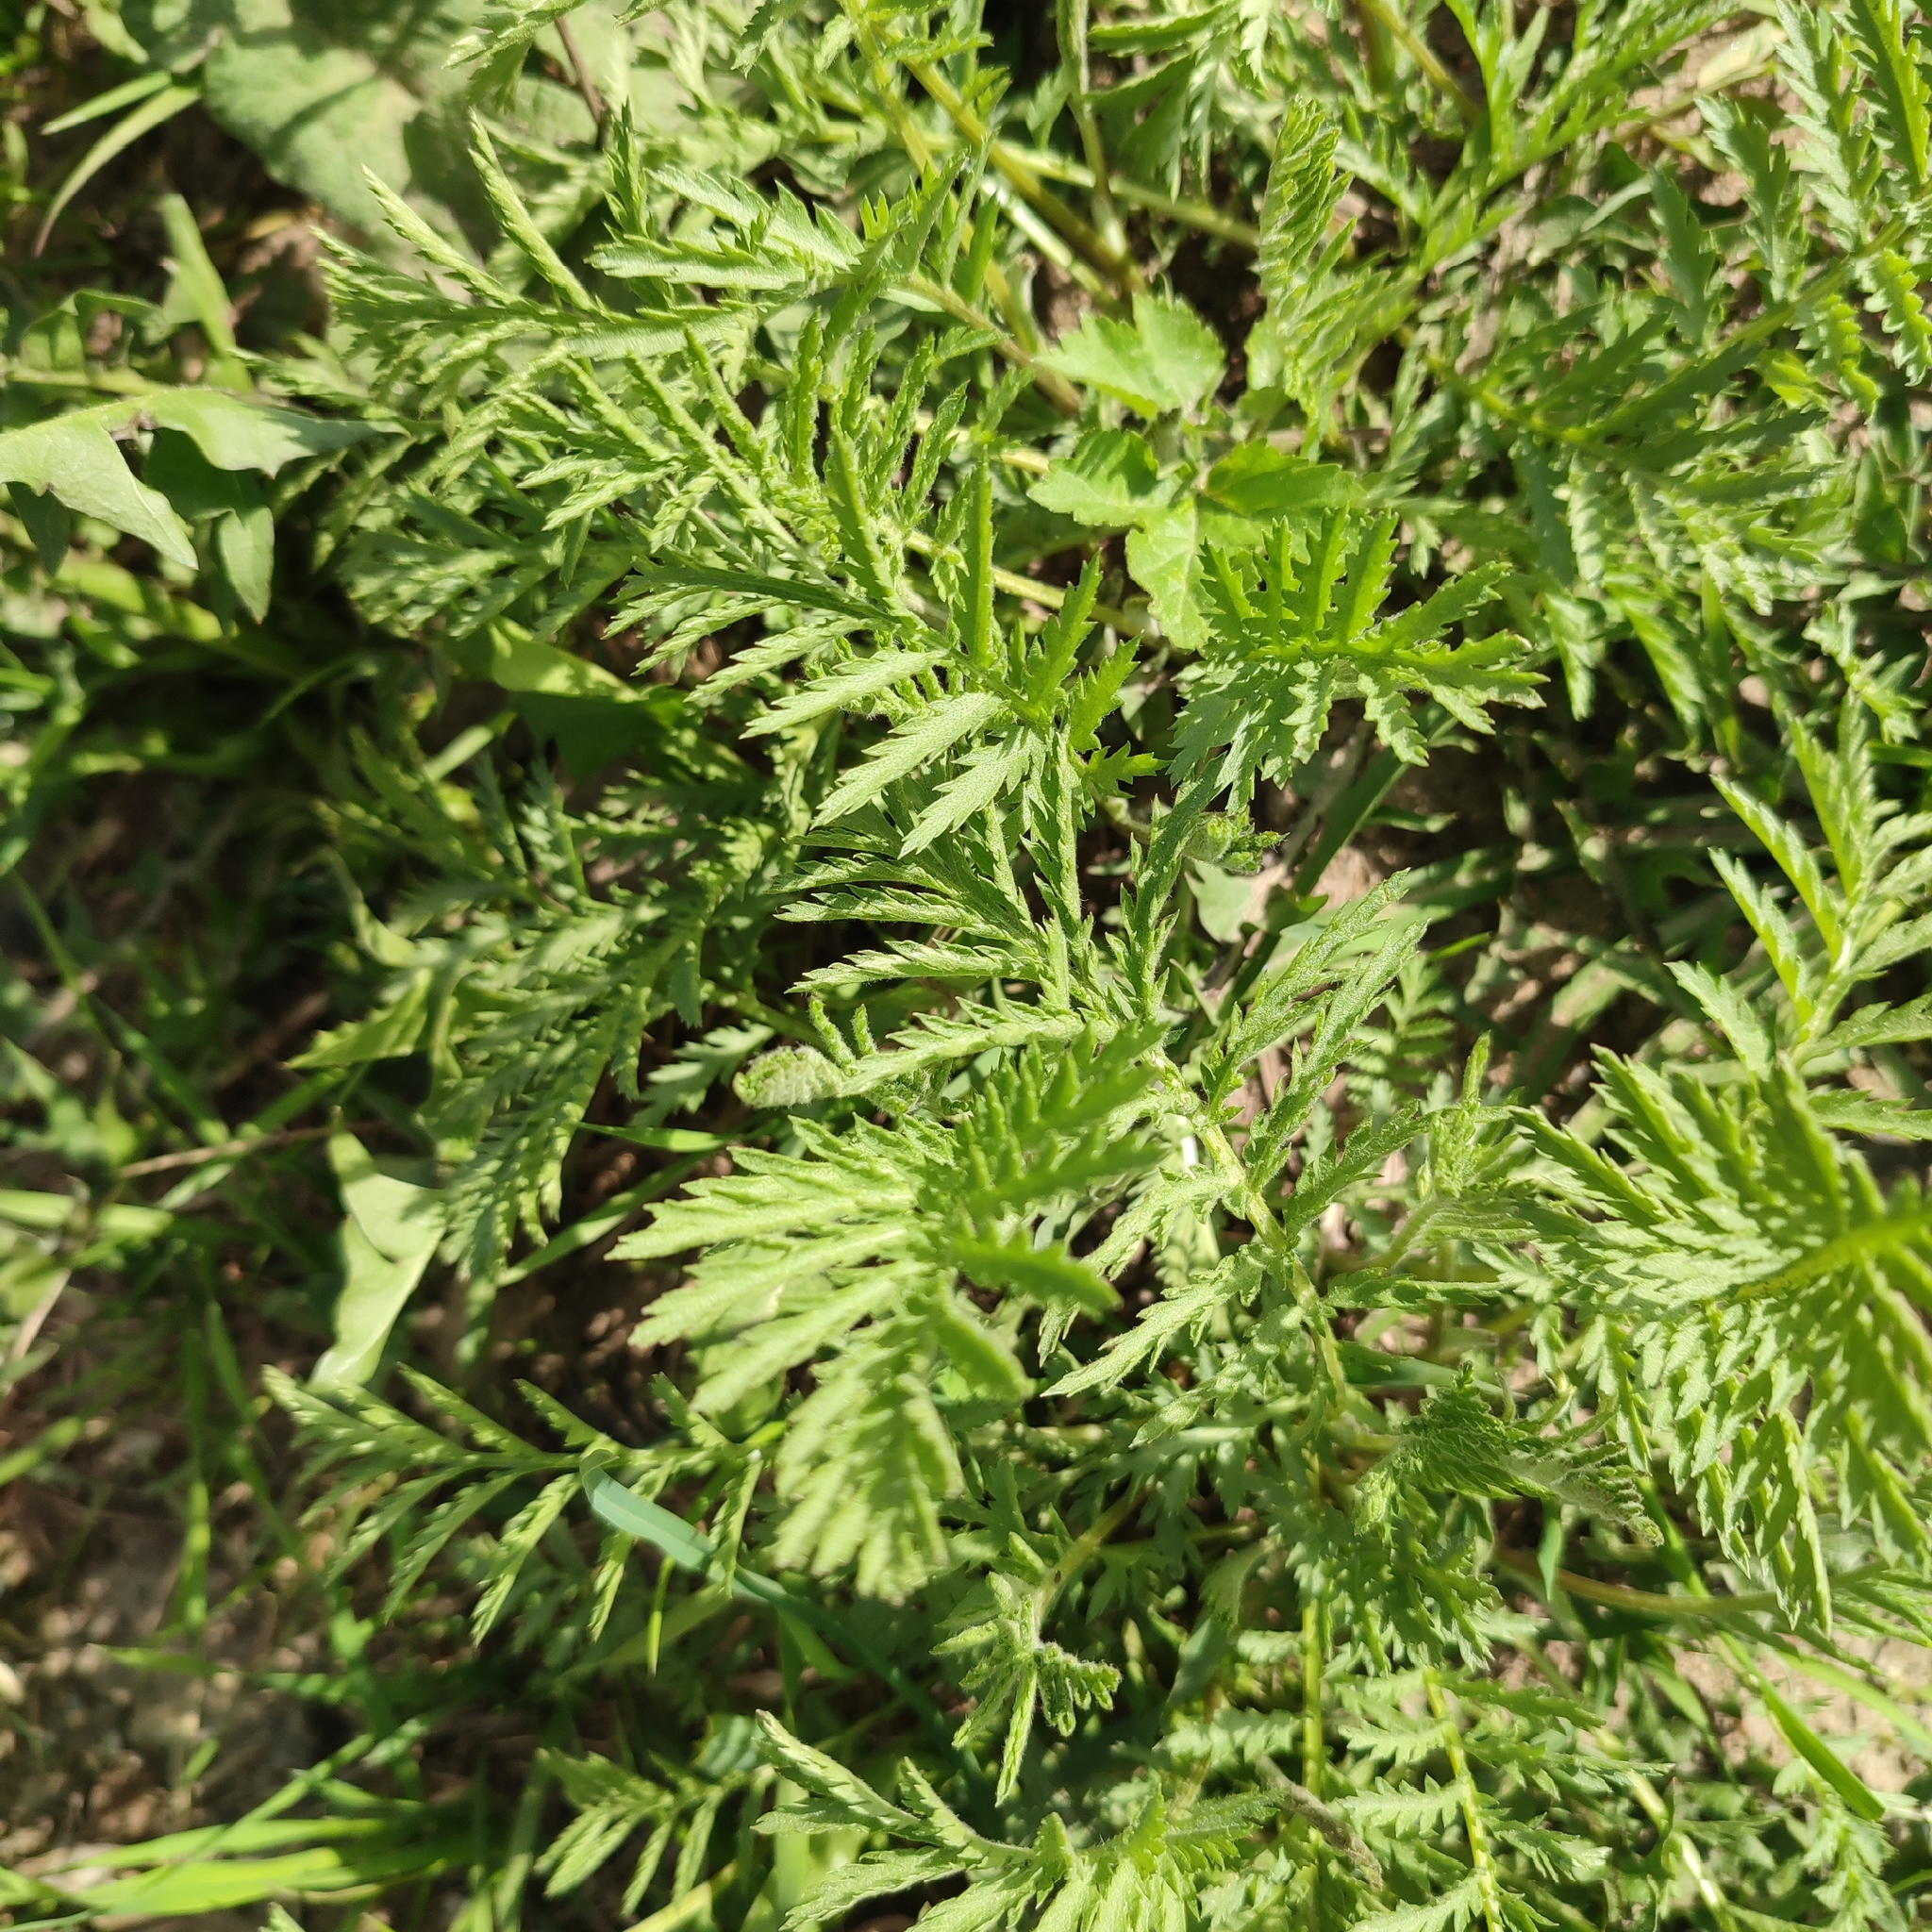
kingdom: Plantae
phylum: Tracheophyta
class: Magnoliopsida
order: Asterales
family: Asteraceae
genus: Tanacetum
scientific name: Tanacetum vulgare
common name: Common tansy
